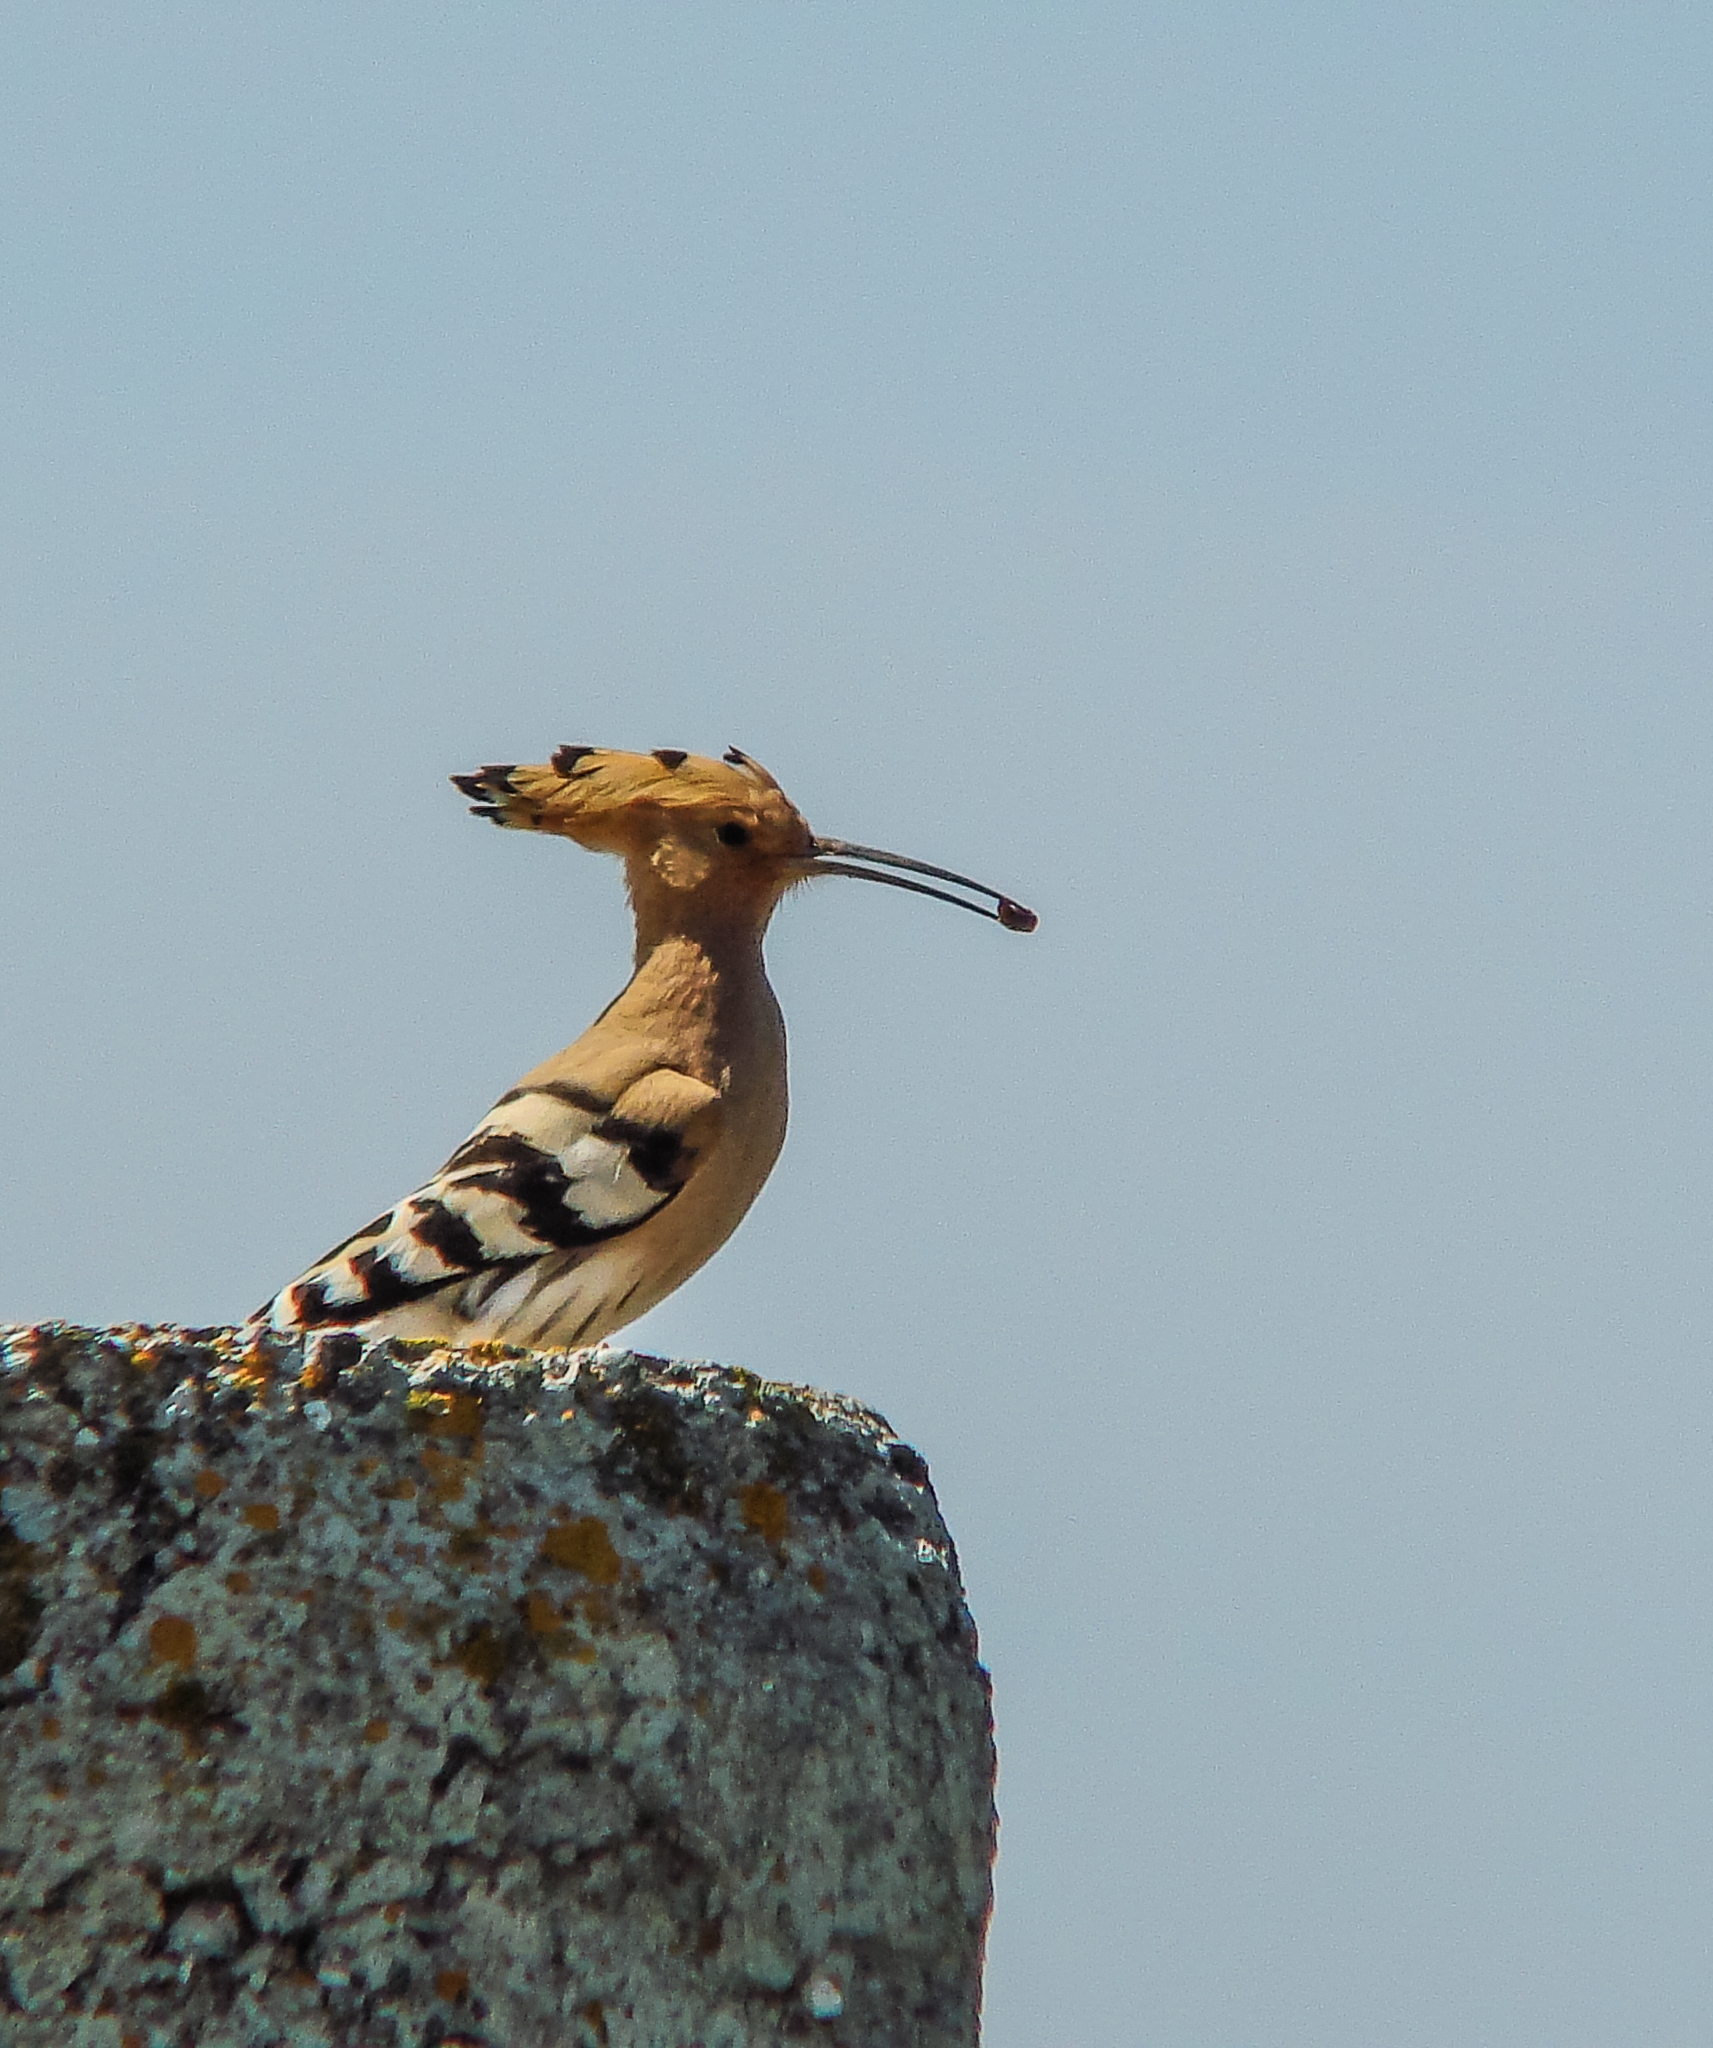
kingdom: Animalia
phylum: Chordata
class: Aves
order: Bucerotiformes
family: Upupidae
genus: Upupa
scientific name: Upupa epops
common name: Eurasian hoopoe
